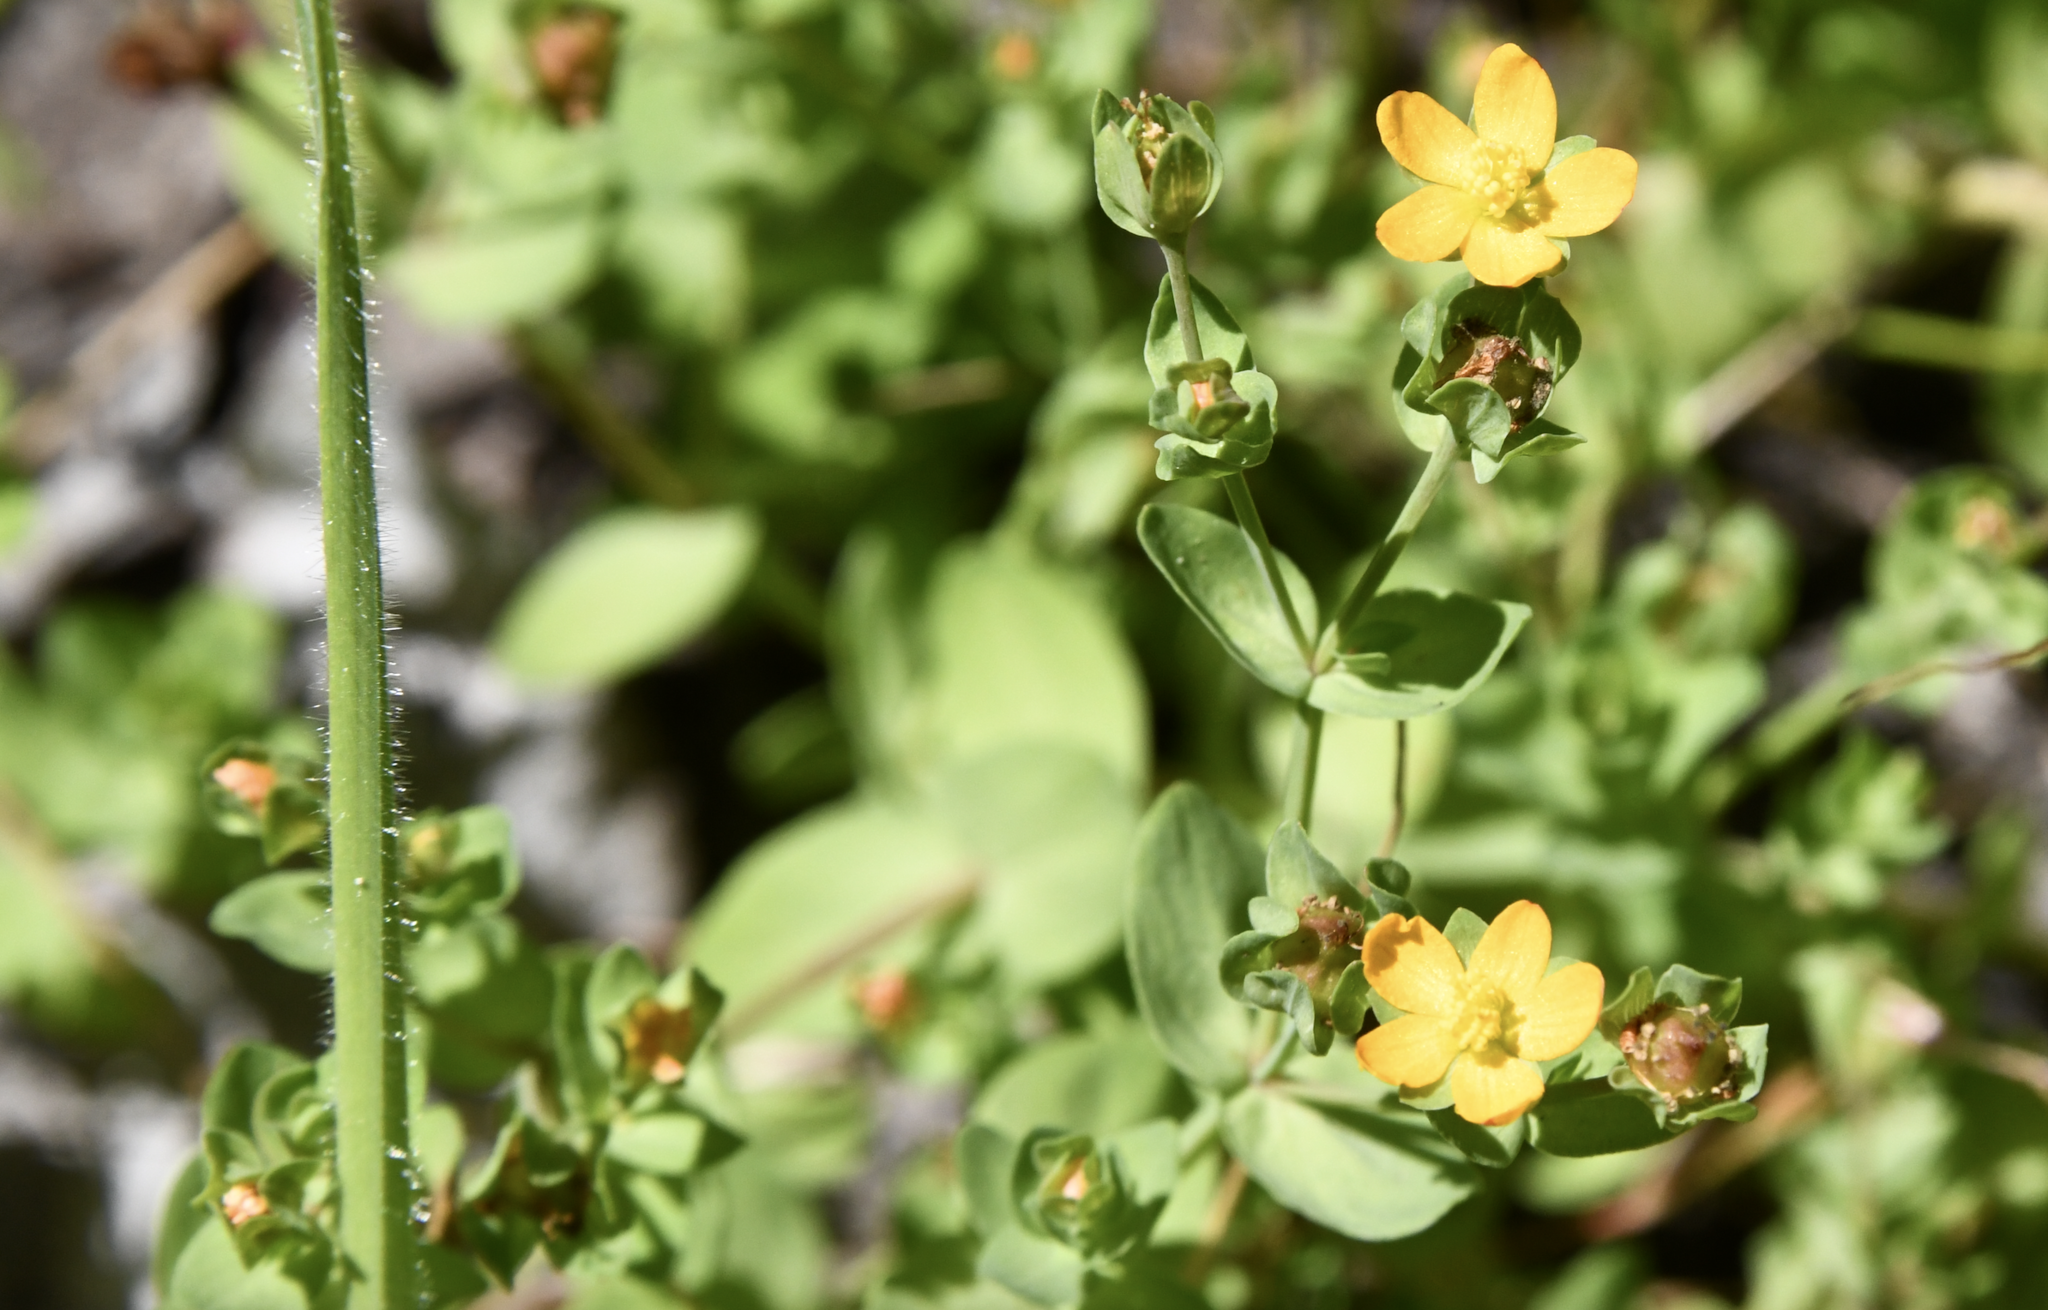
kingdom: Plantae
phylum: Tracheophyta
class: Magnoliopsida
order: Malpighiales
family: Hypericaceae
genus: Hypericum
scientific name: Hypericum anagalloides
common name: Bog st. john's-wort
